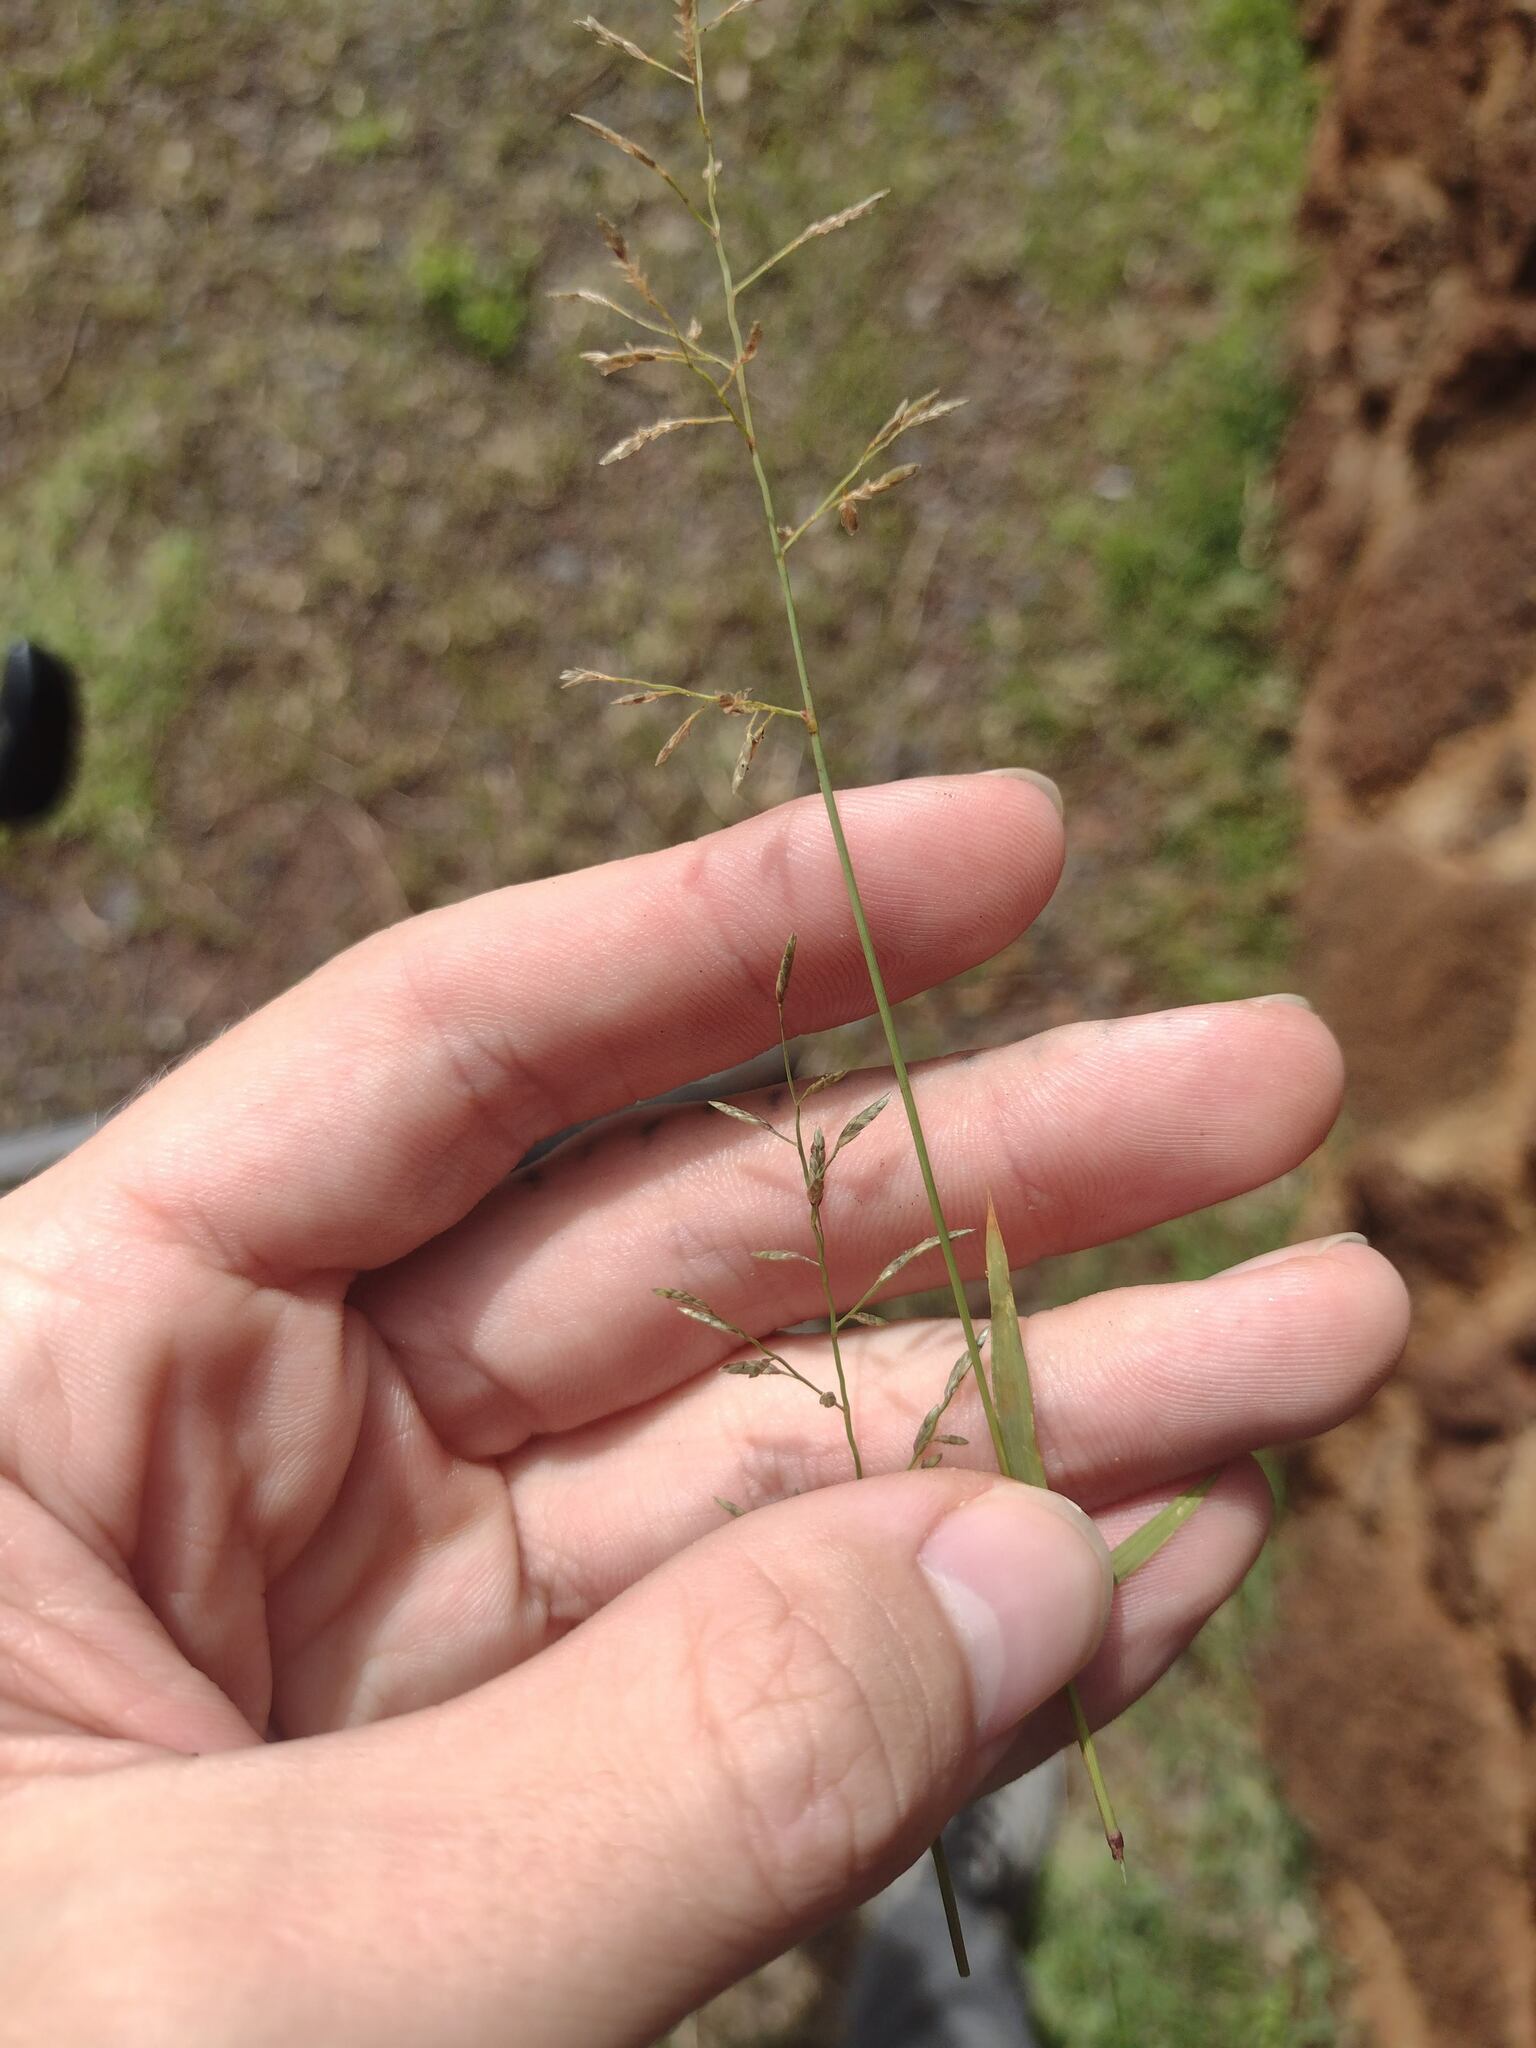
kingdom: Plantae
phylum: Tracheophyta
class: Liliopsida
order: Poales
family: Poaceae
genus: Eragrostis
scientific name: Eragrostis barrelieri
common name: Mediterranean lovegrass
